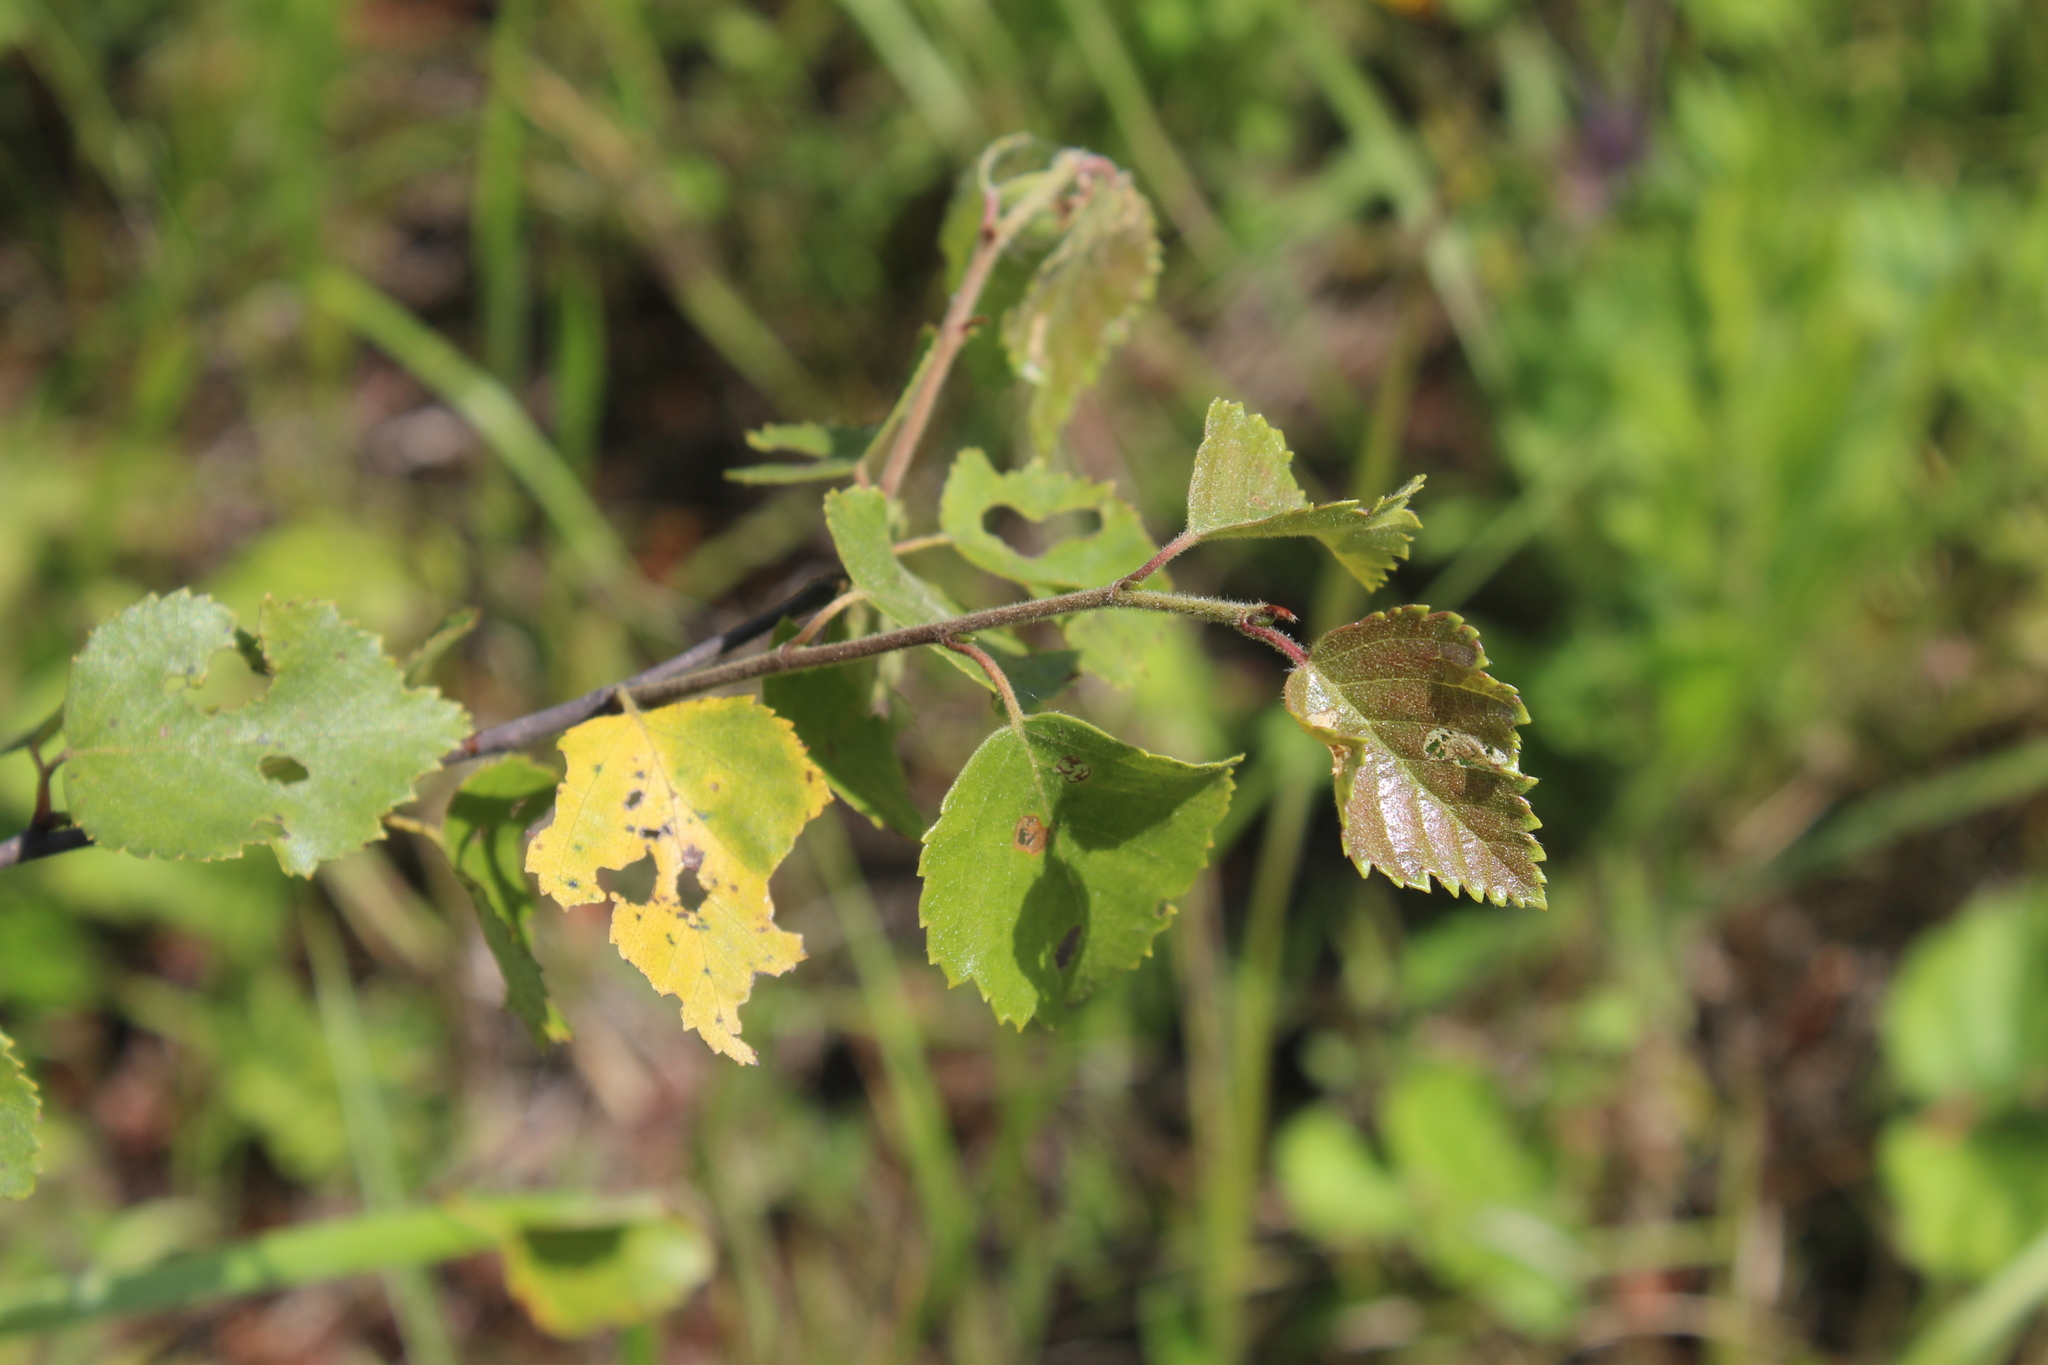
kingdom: Plantae
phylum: Tracheophyta
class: Magnoliopsida
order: Fagales
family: Betulaceae
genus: Betula
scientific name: Betula pubescens
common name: Downy birch
